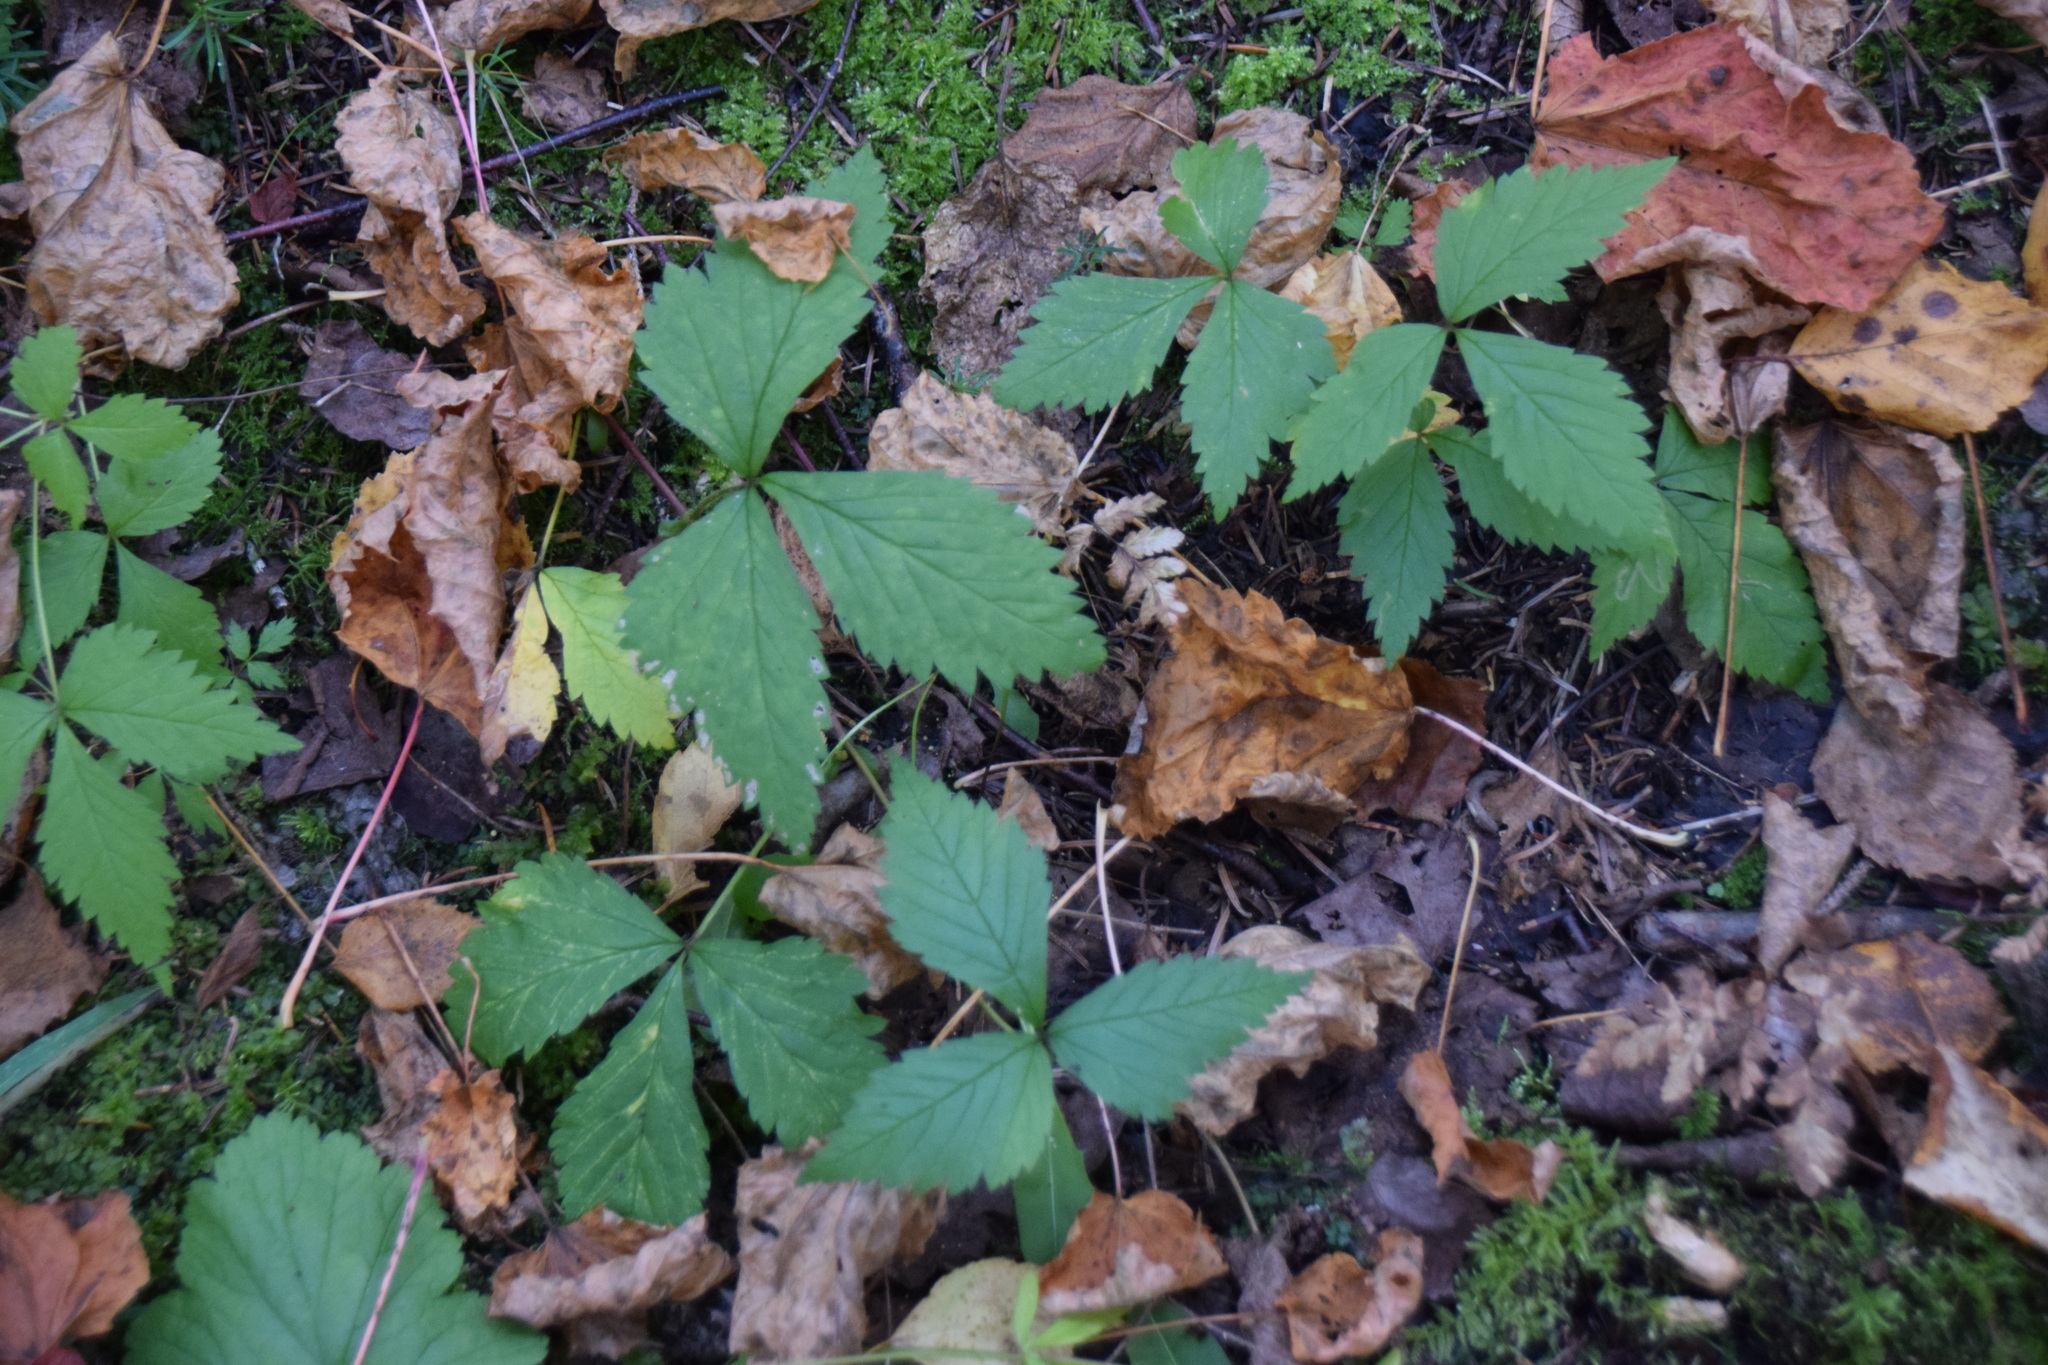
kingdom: Plantae
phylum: Tracheophyta
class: Magnoliopsida
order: Rosales
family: Rosaceae
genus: Rubus
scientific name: Rubus pubescens
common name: Dwarf raspberry
